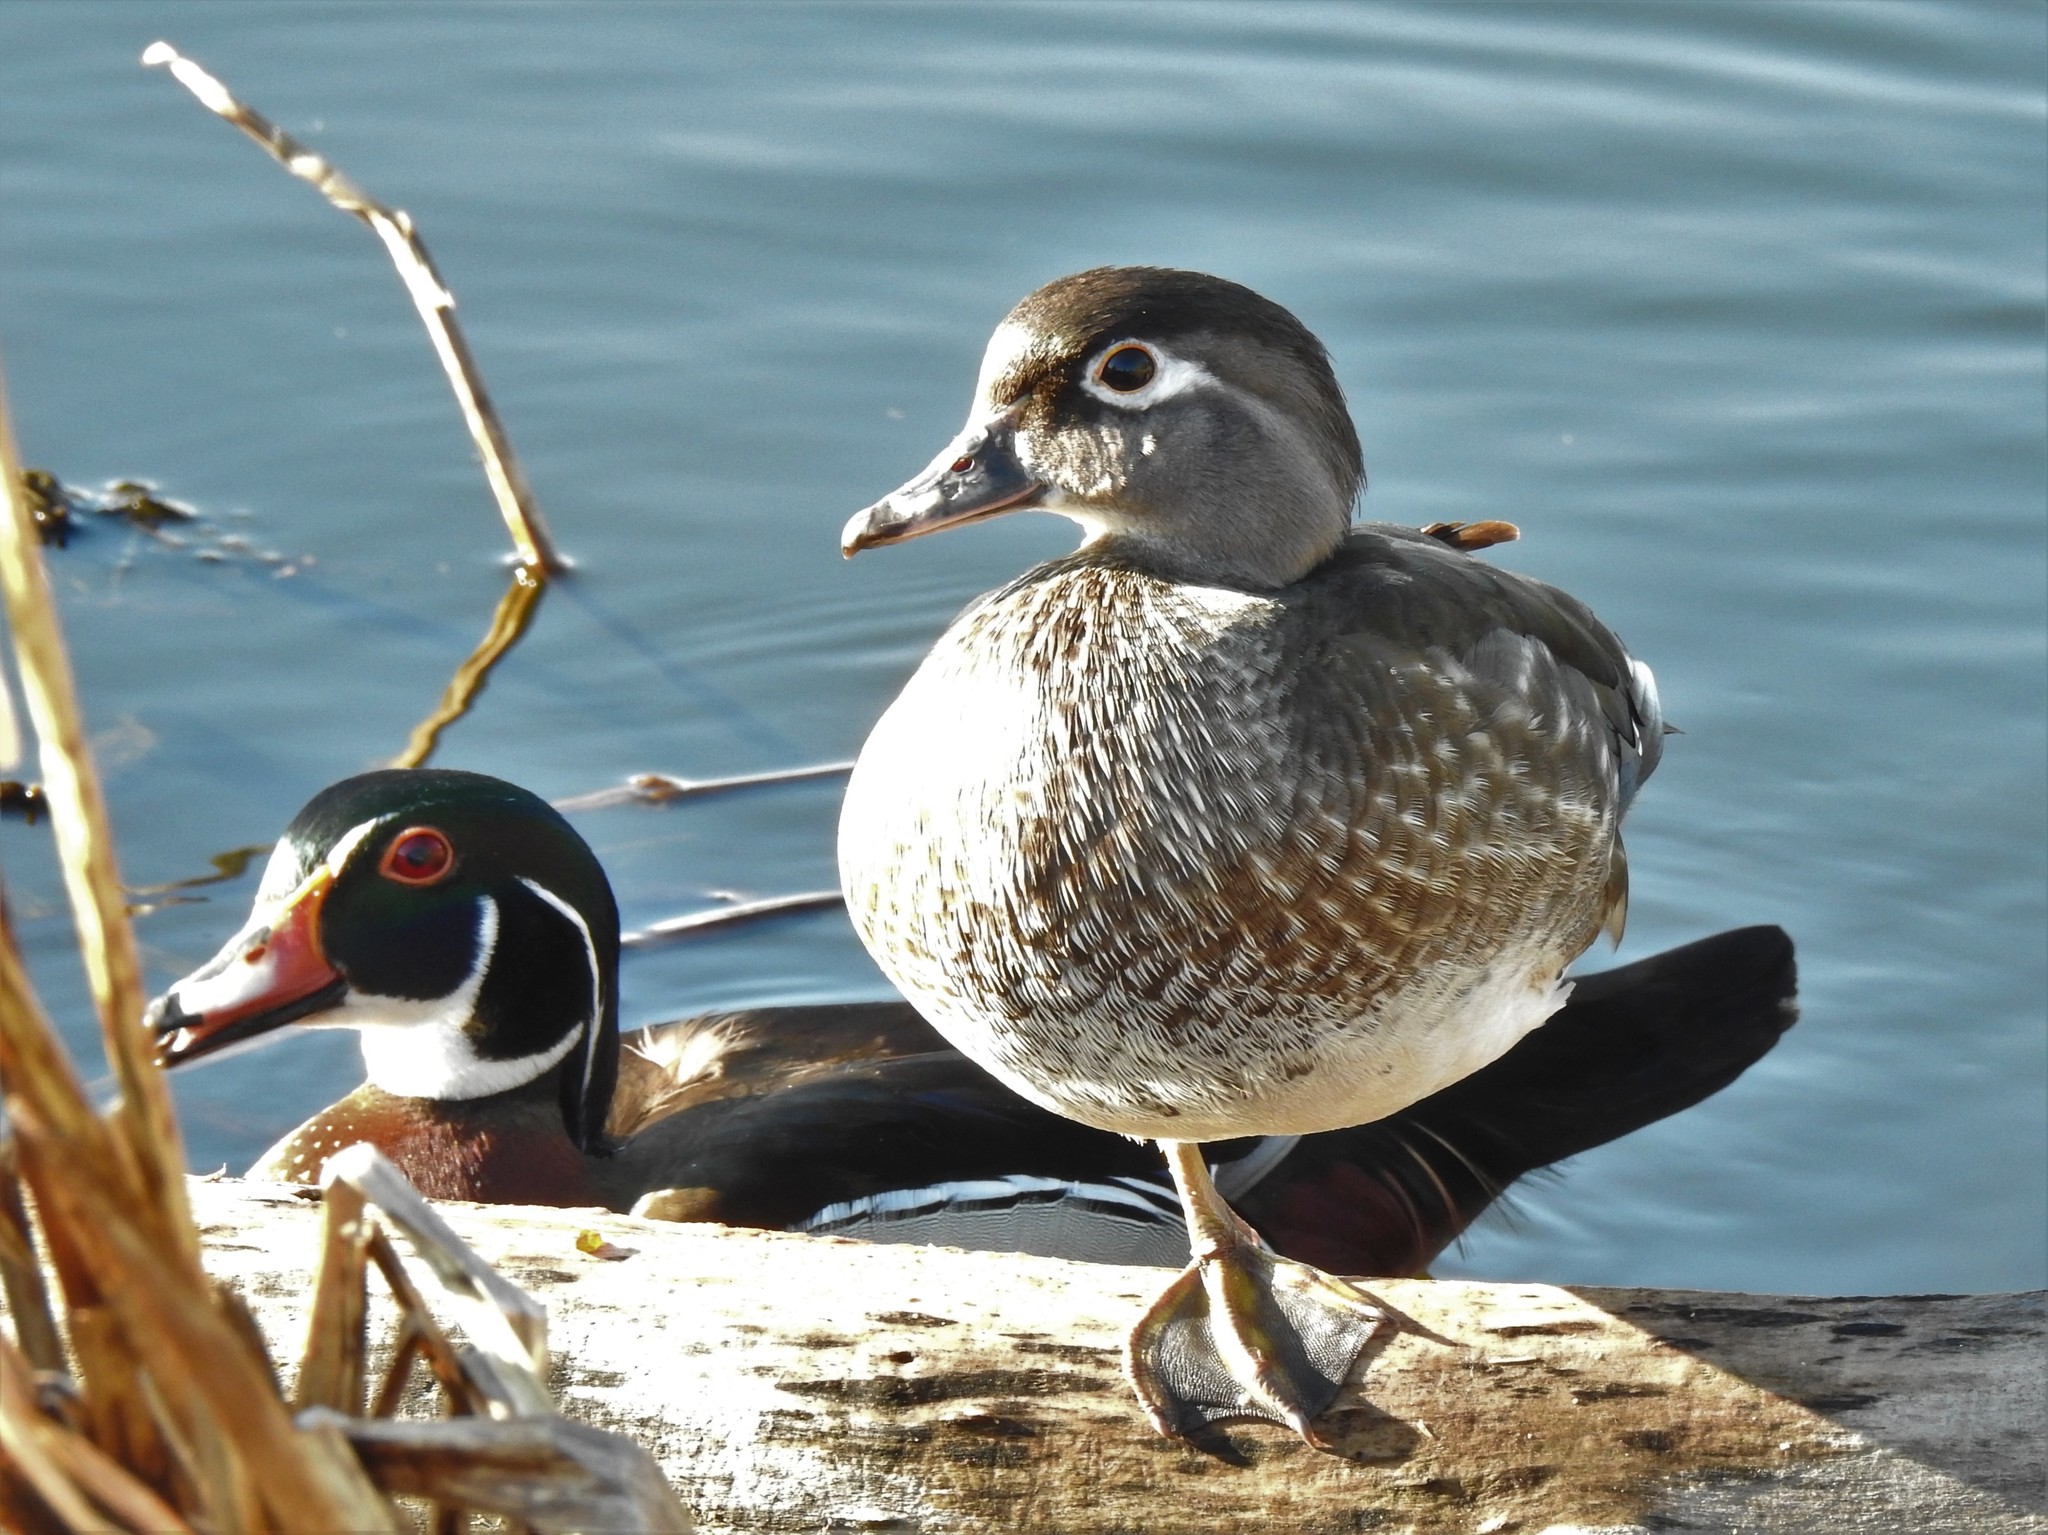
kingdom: Animalia
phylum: Chordata
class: Aves
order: Anseriformes
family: Anatidae
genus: Aix
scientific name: Aix sponsa
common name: Wood duck
